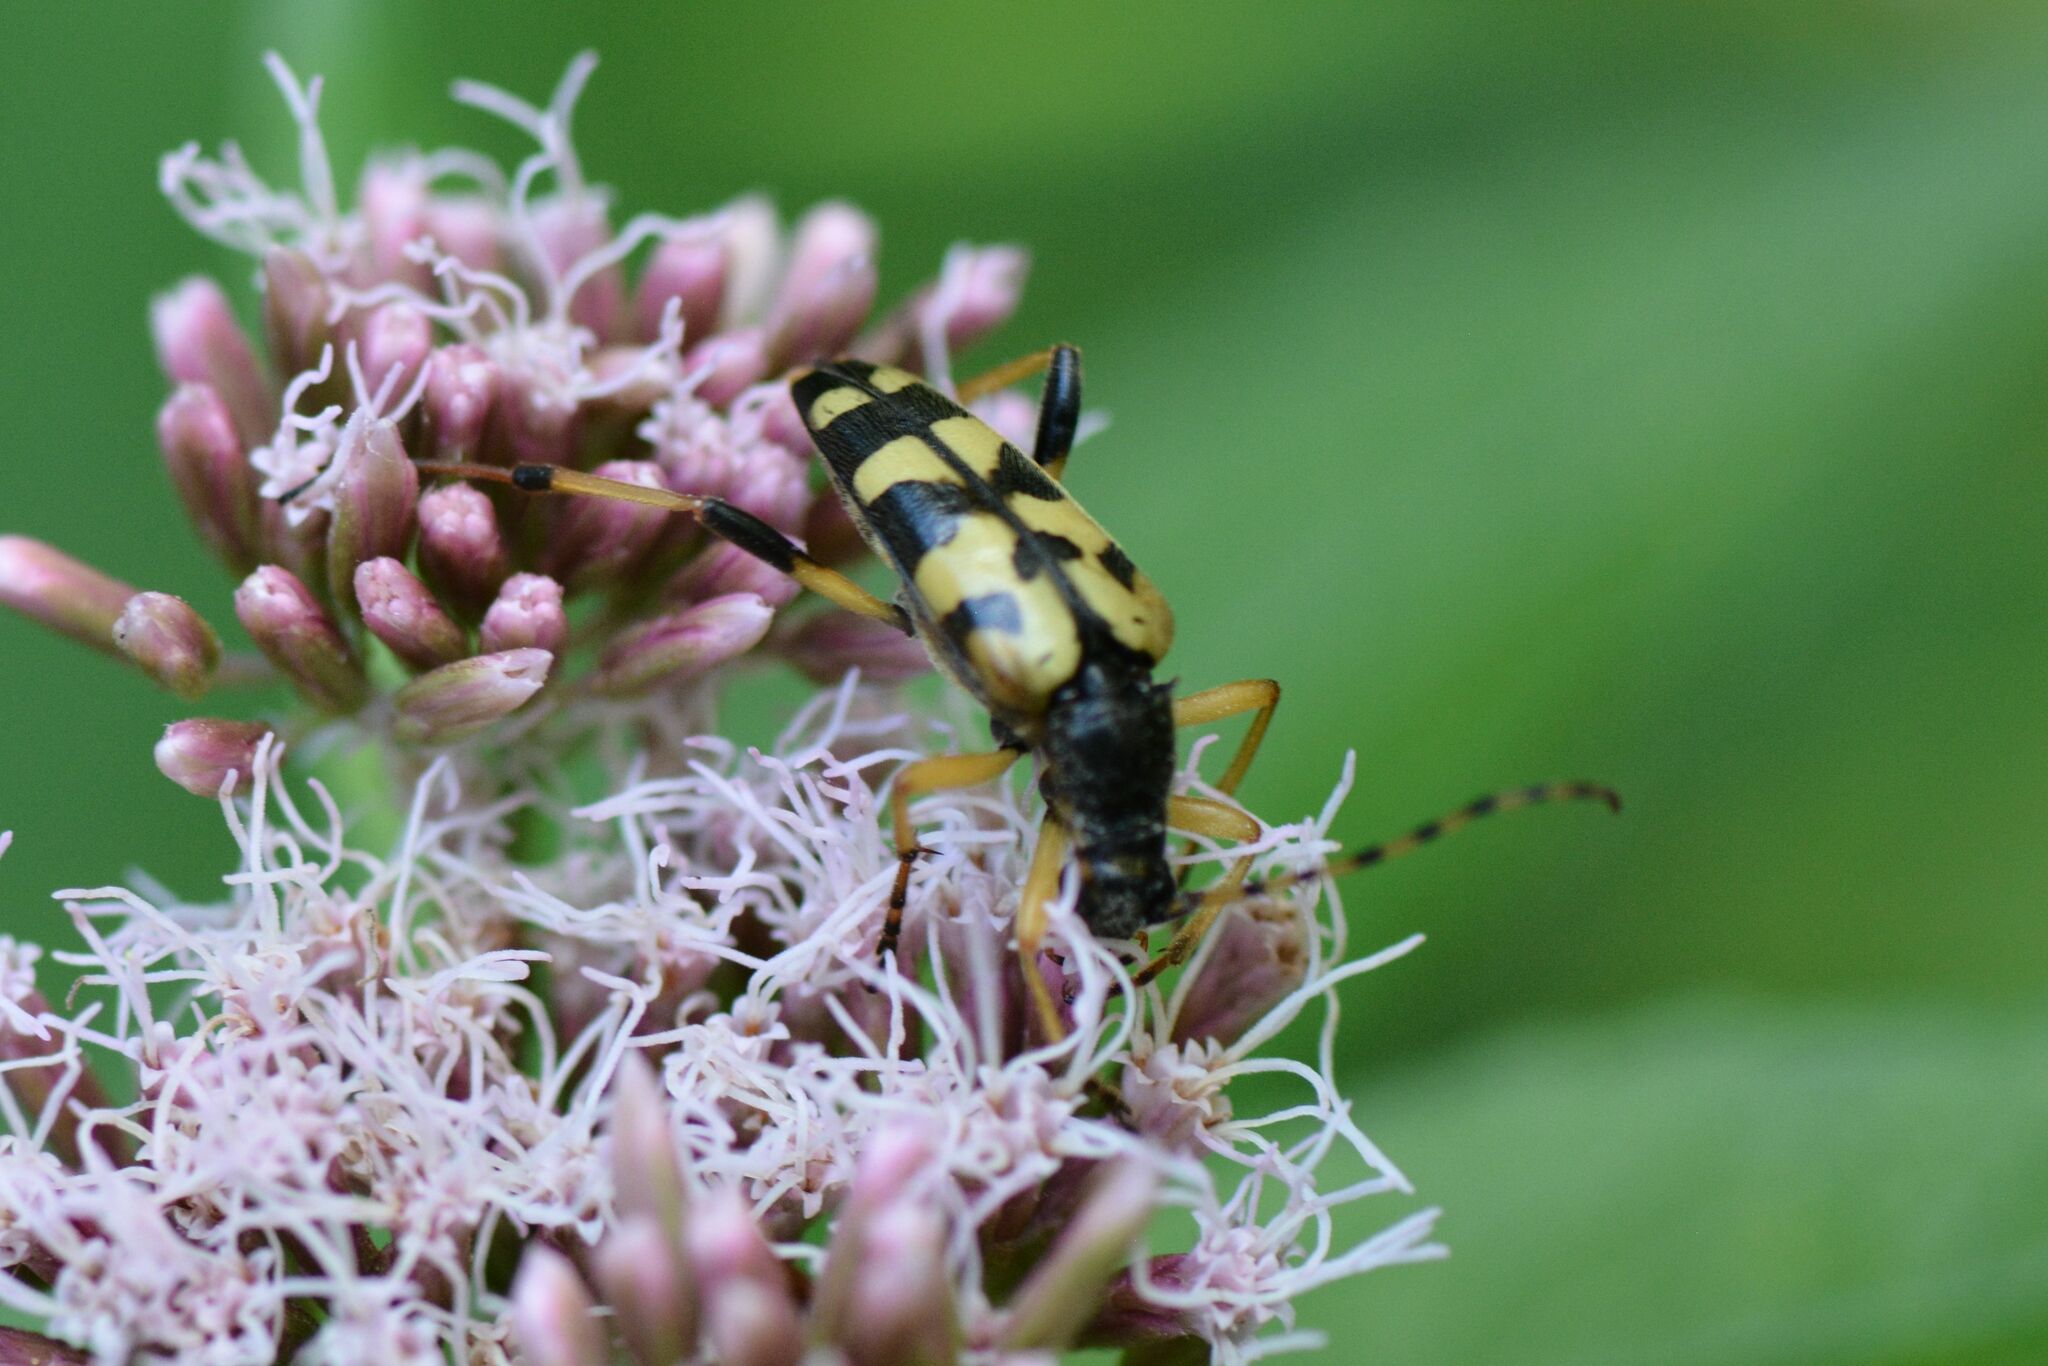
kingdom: Animalia
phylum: Arthropoda
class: Insecta
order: Coleoptera
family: Cerambycidae
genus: Rutpela
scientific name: Rutpela maculata
